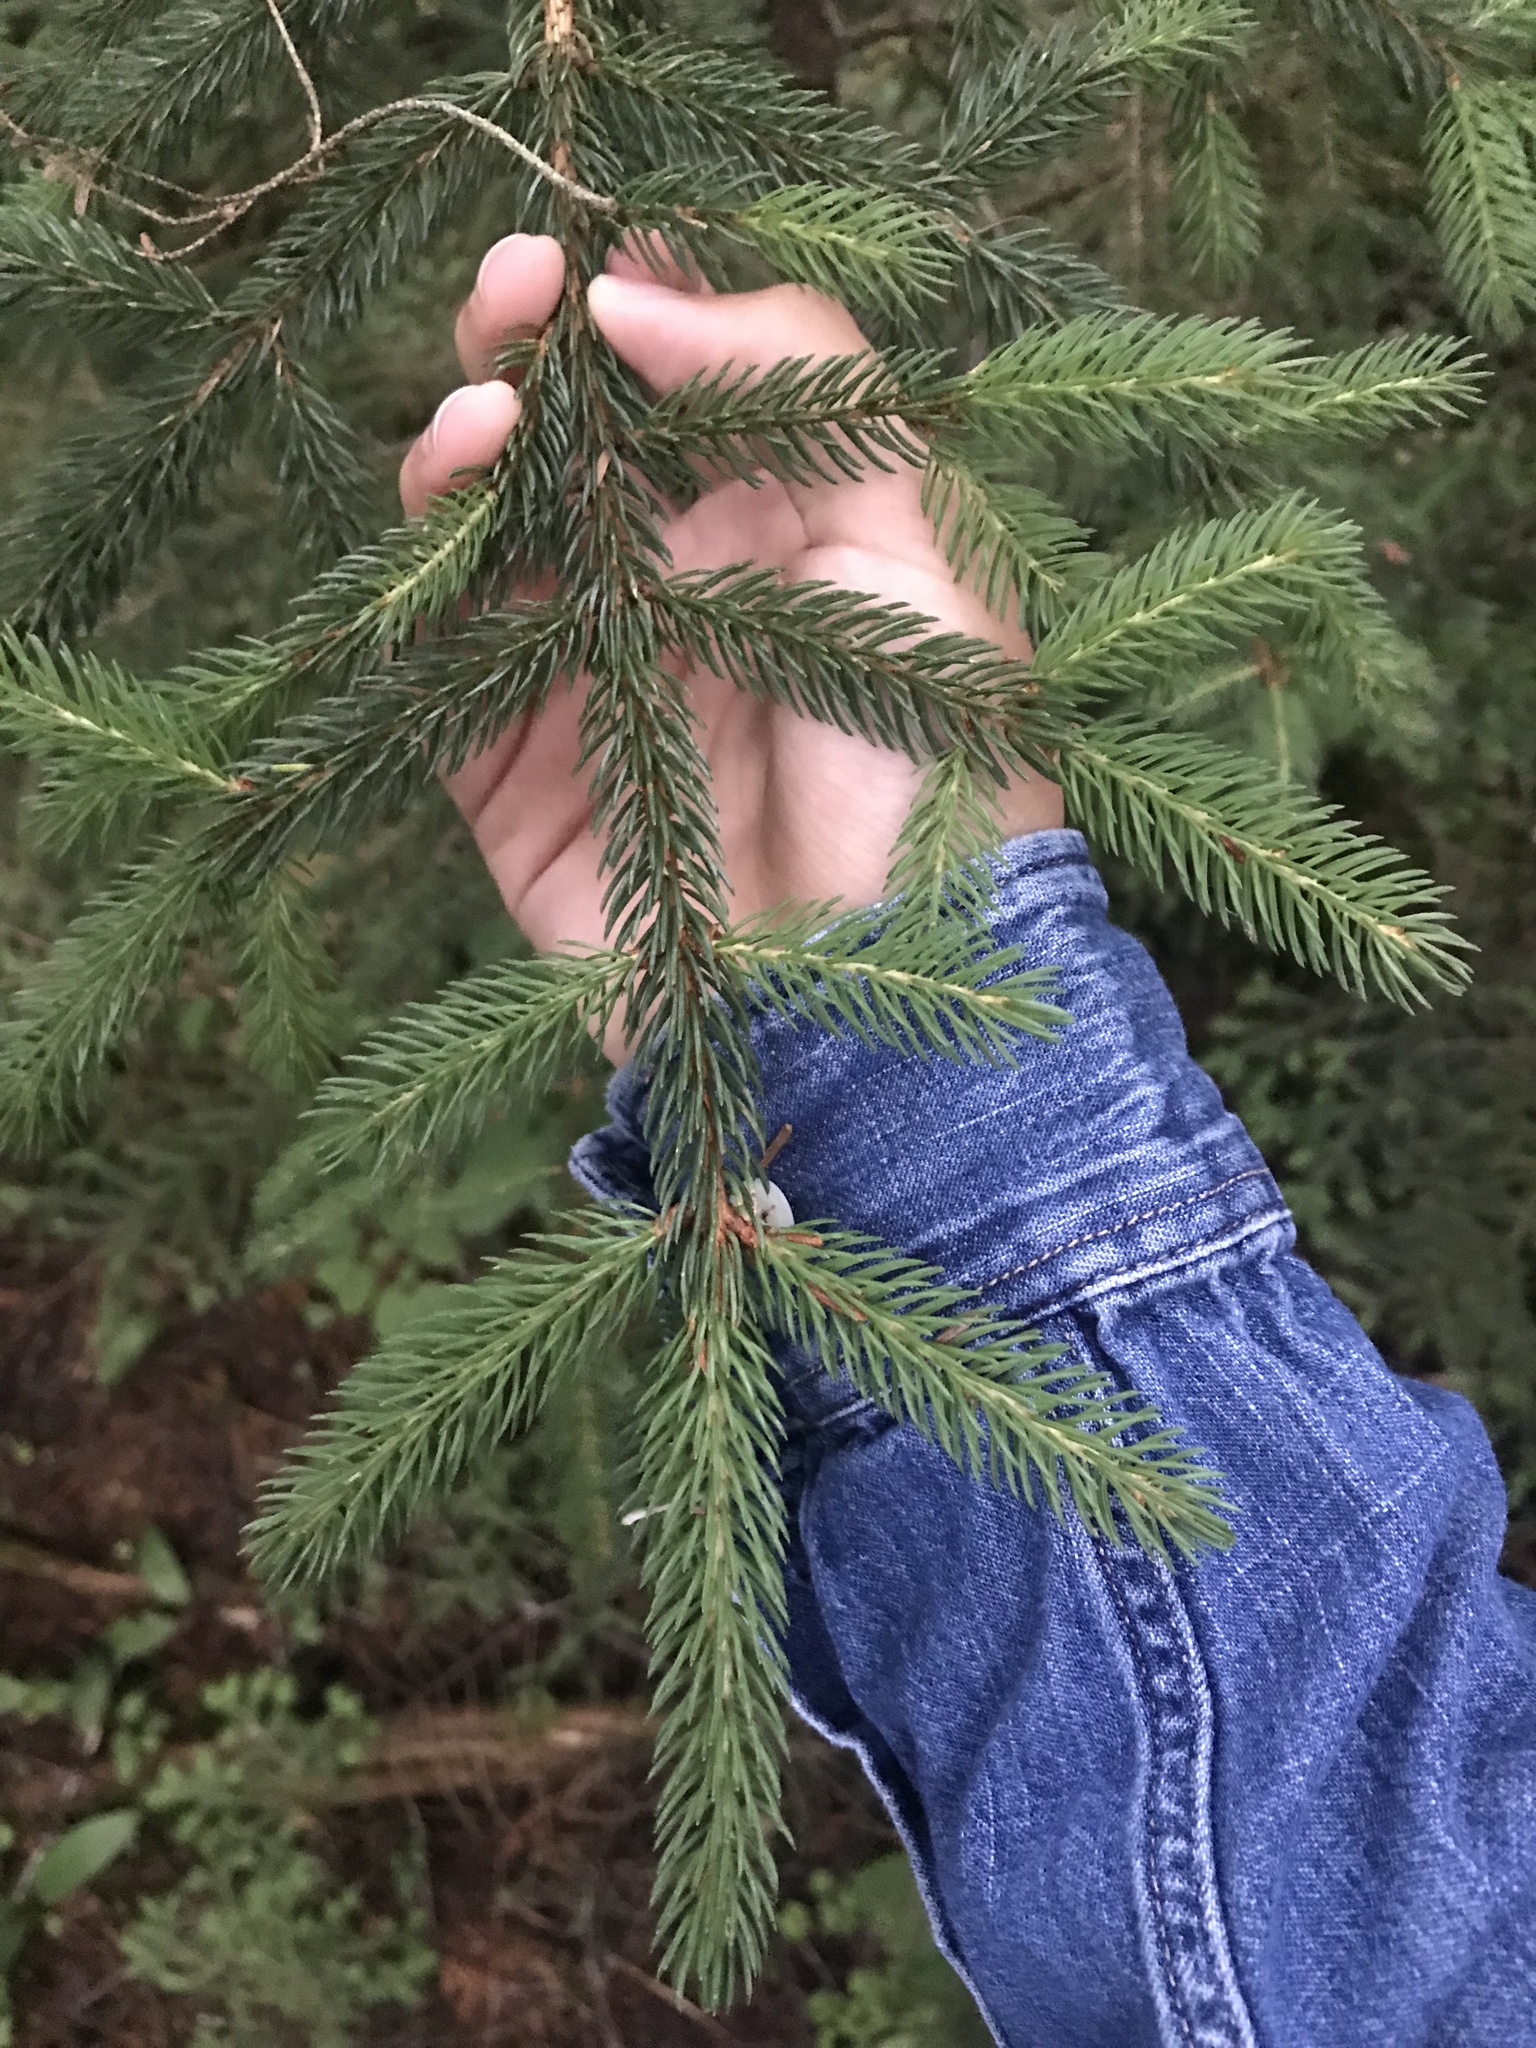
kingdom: Plantae
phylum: Tracheophyta
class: Pinopsida
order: Pinales
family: Pinaceae
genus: Picea
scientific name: Picea rubens
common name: Red spruce
